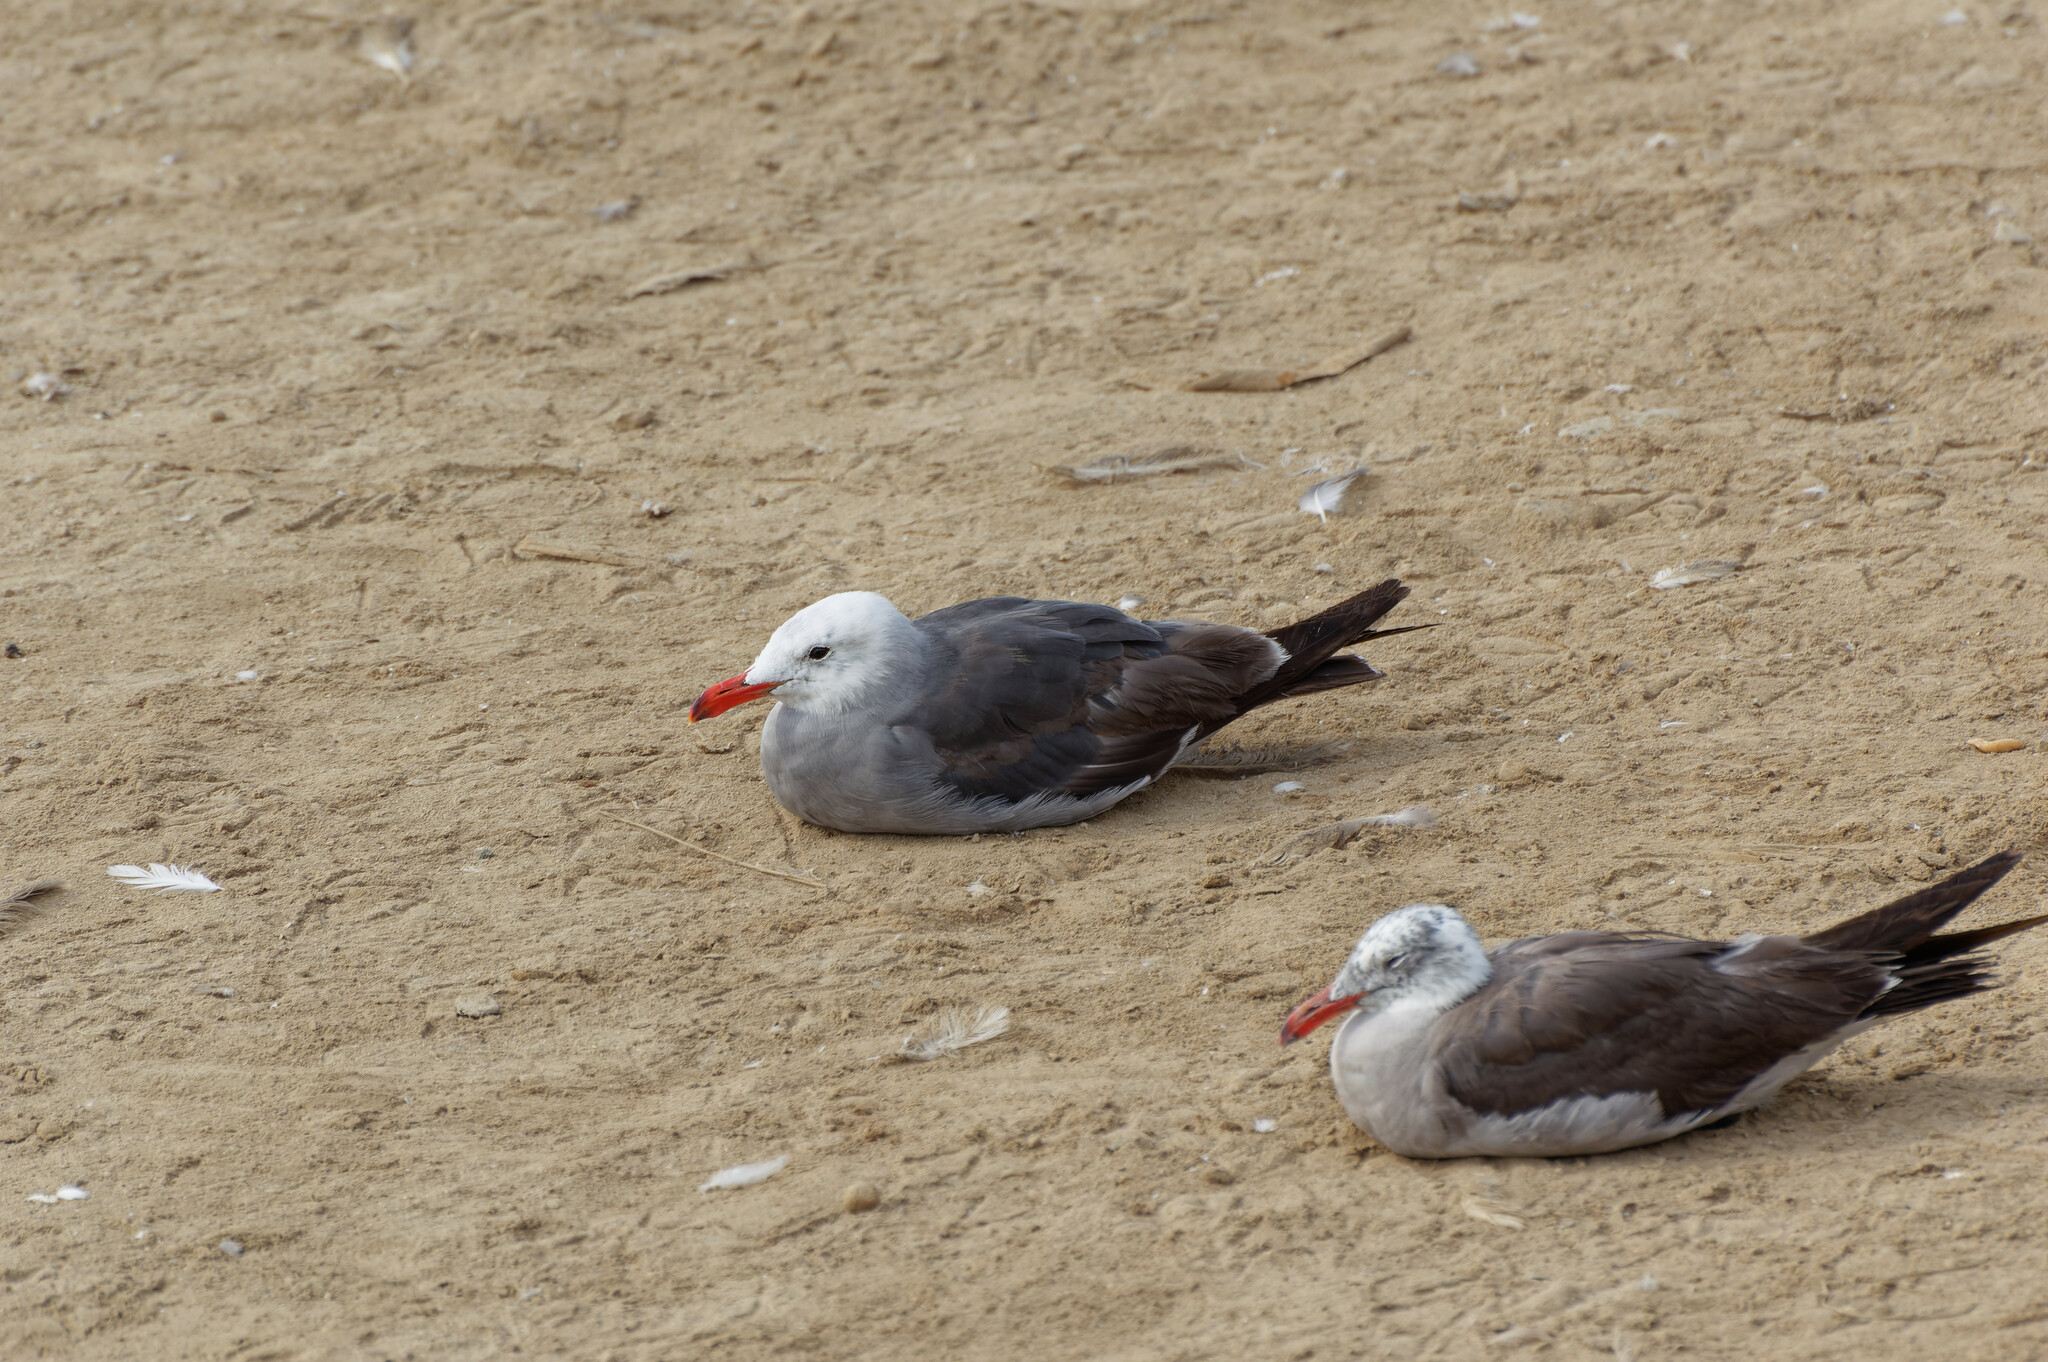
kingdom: Animalia
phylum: Chordata
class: Aves
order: Charadriiformes
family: Laridae
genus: Larus
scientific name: Larus heermanni
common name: Heermann's gull
